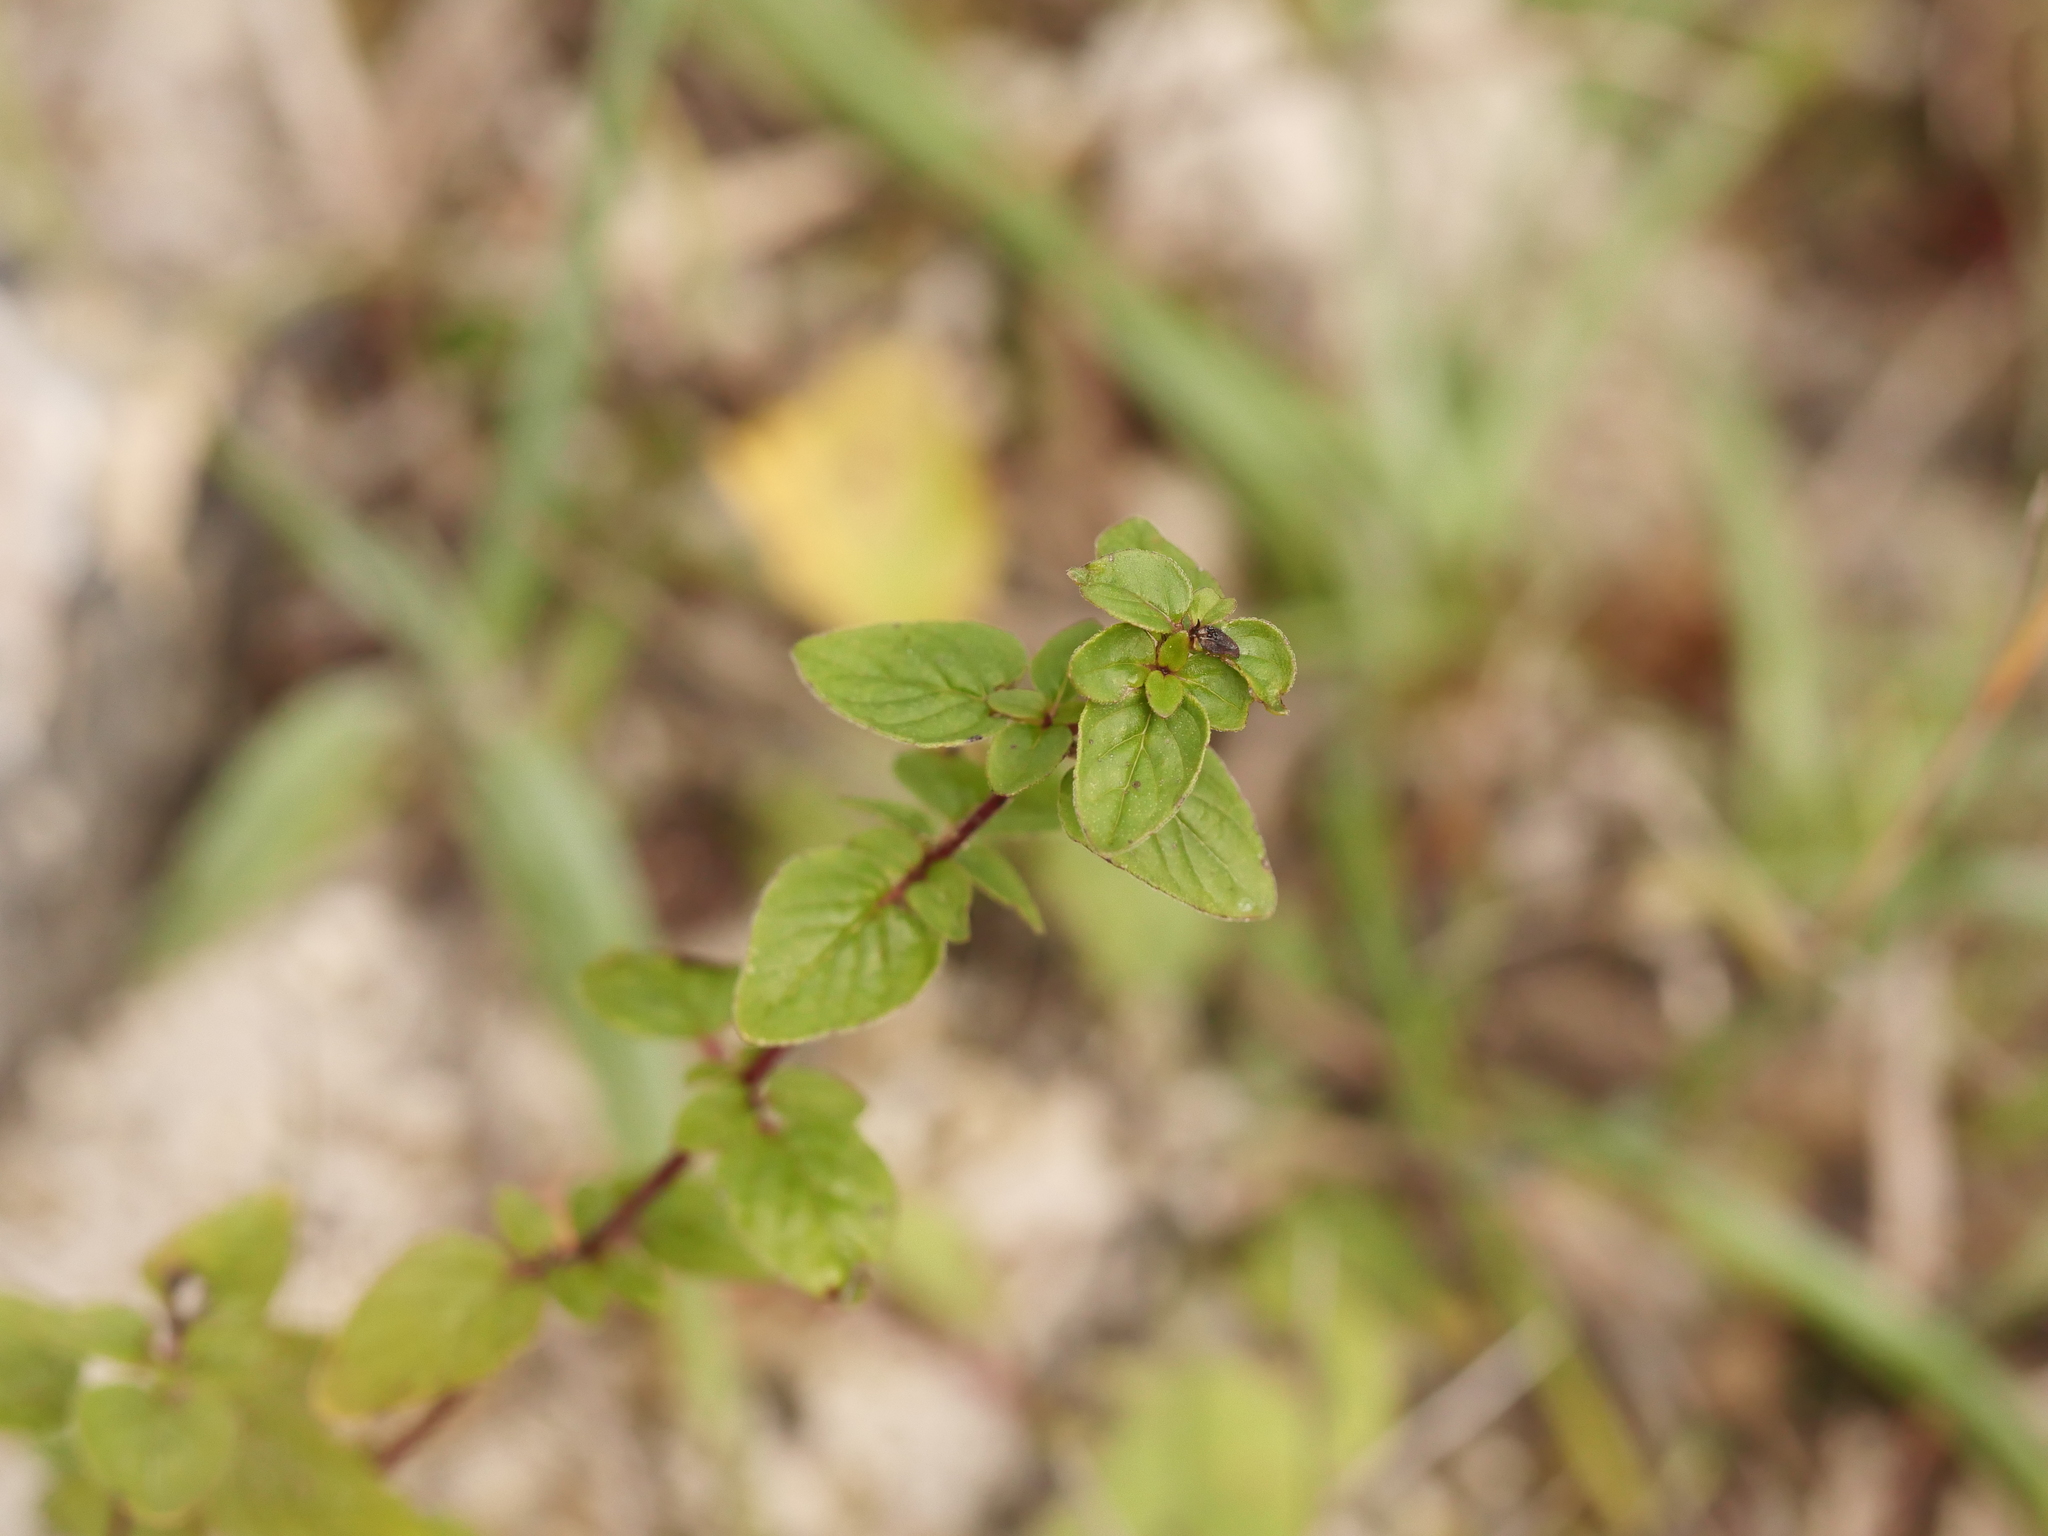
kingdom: Plantae
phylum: Tracheophyta
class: Magnoliopsida
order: Lamiales
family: Lamiaceae
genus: Origanum
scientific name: Origanum vulgare
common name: Wild marjoram
